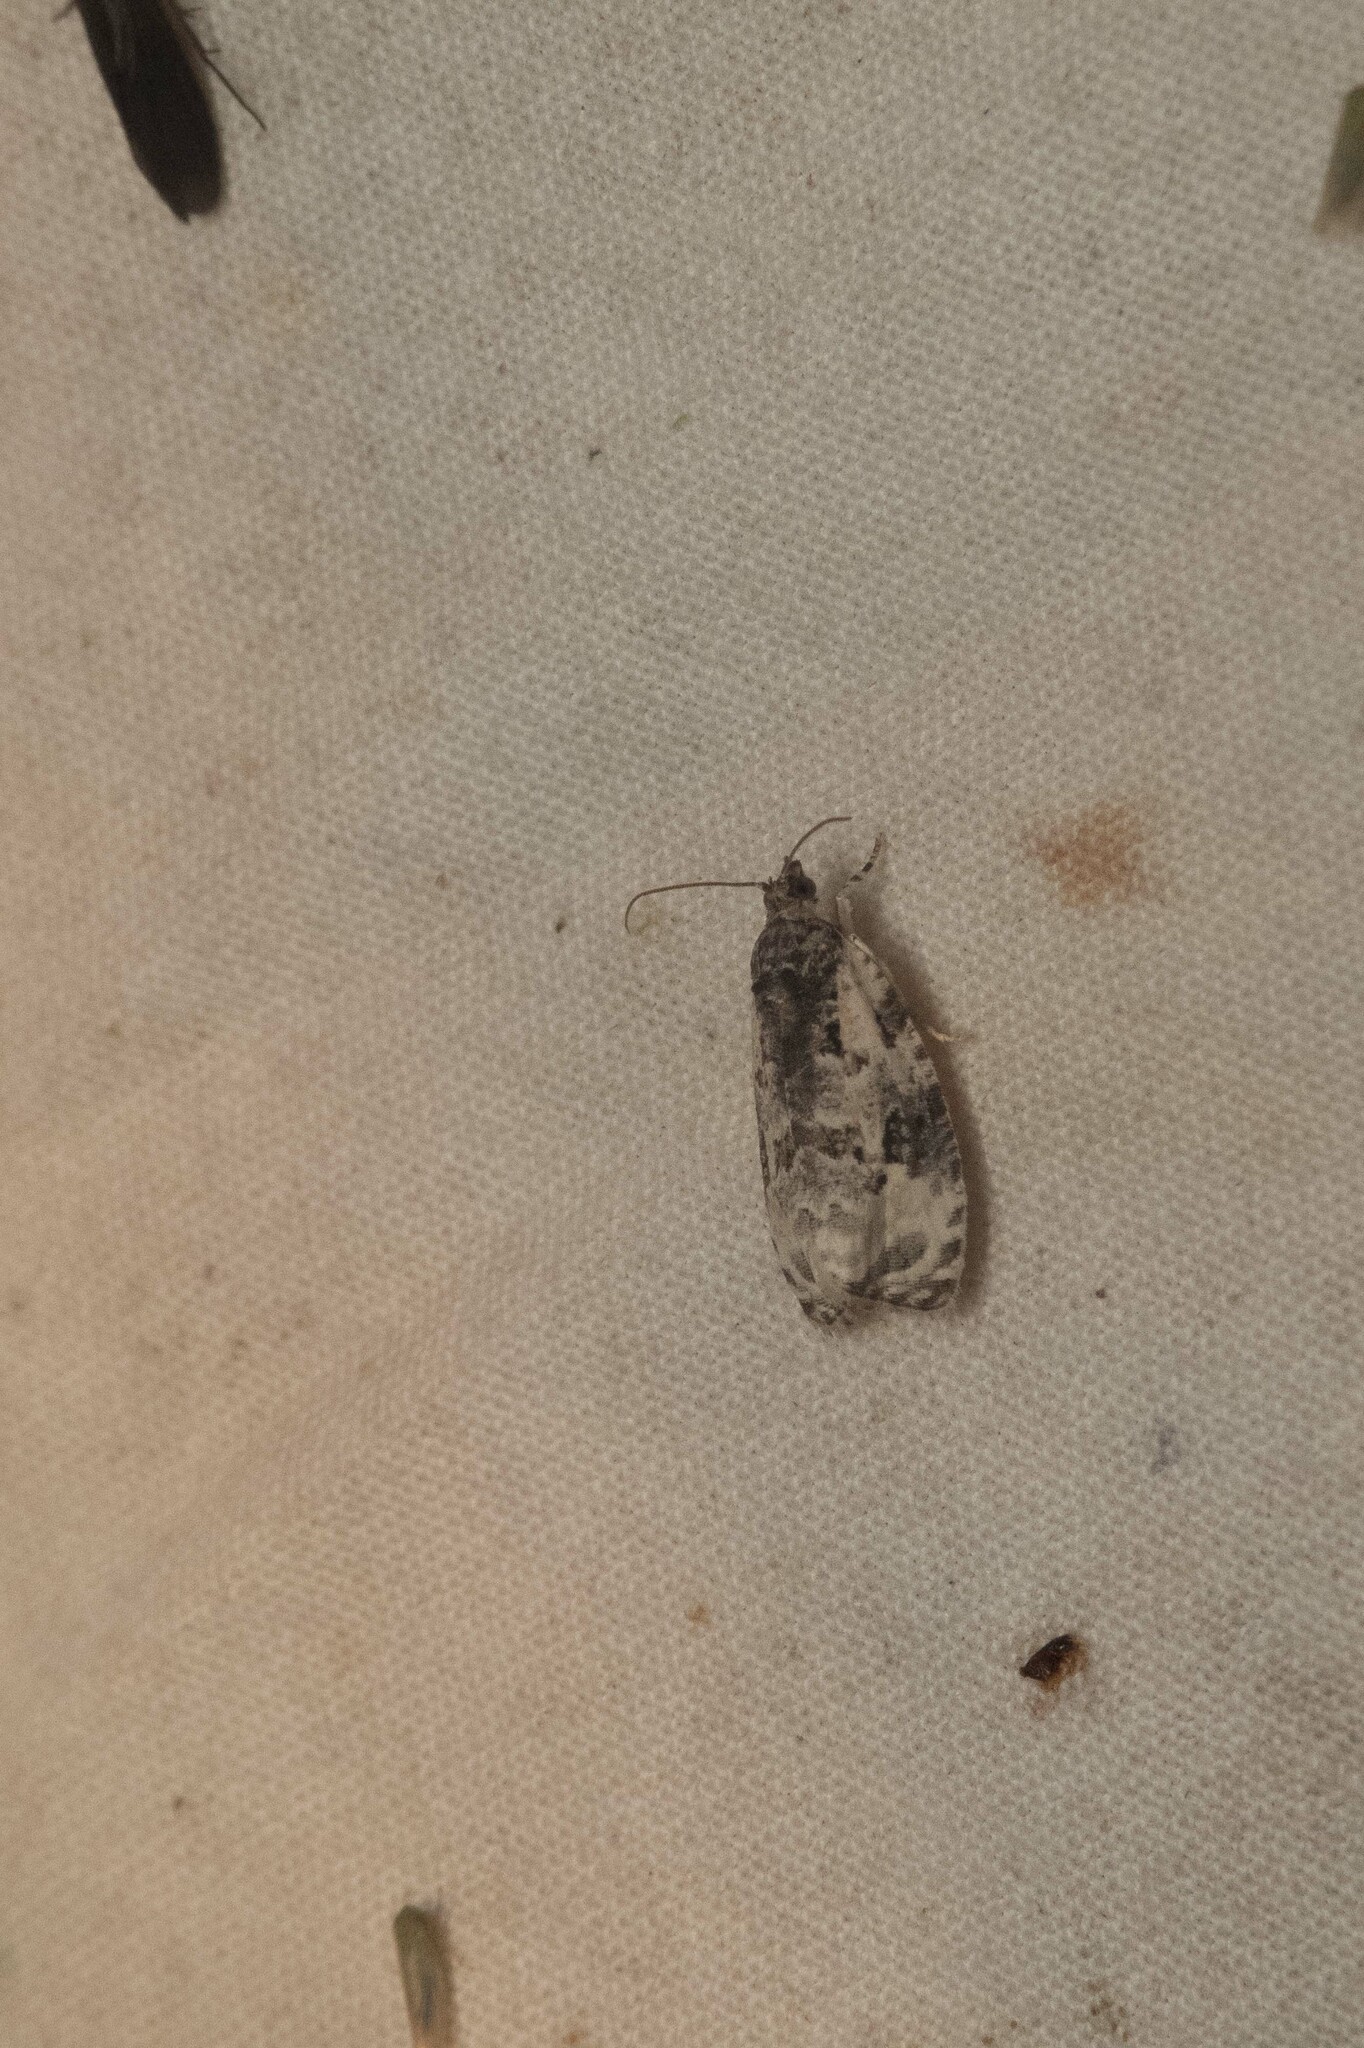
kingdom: Animalia
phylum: Arthropoda
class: Insecta
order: Lepidoptera
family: Tortricidae
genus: Apotomis
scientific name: Apotomis albeolana
